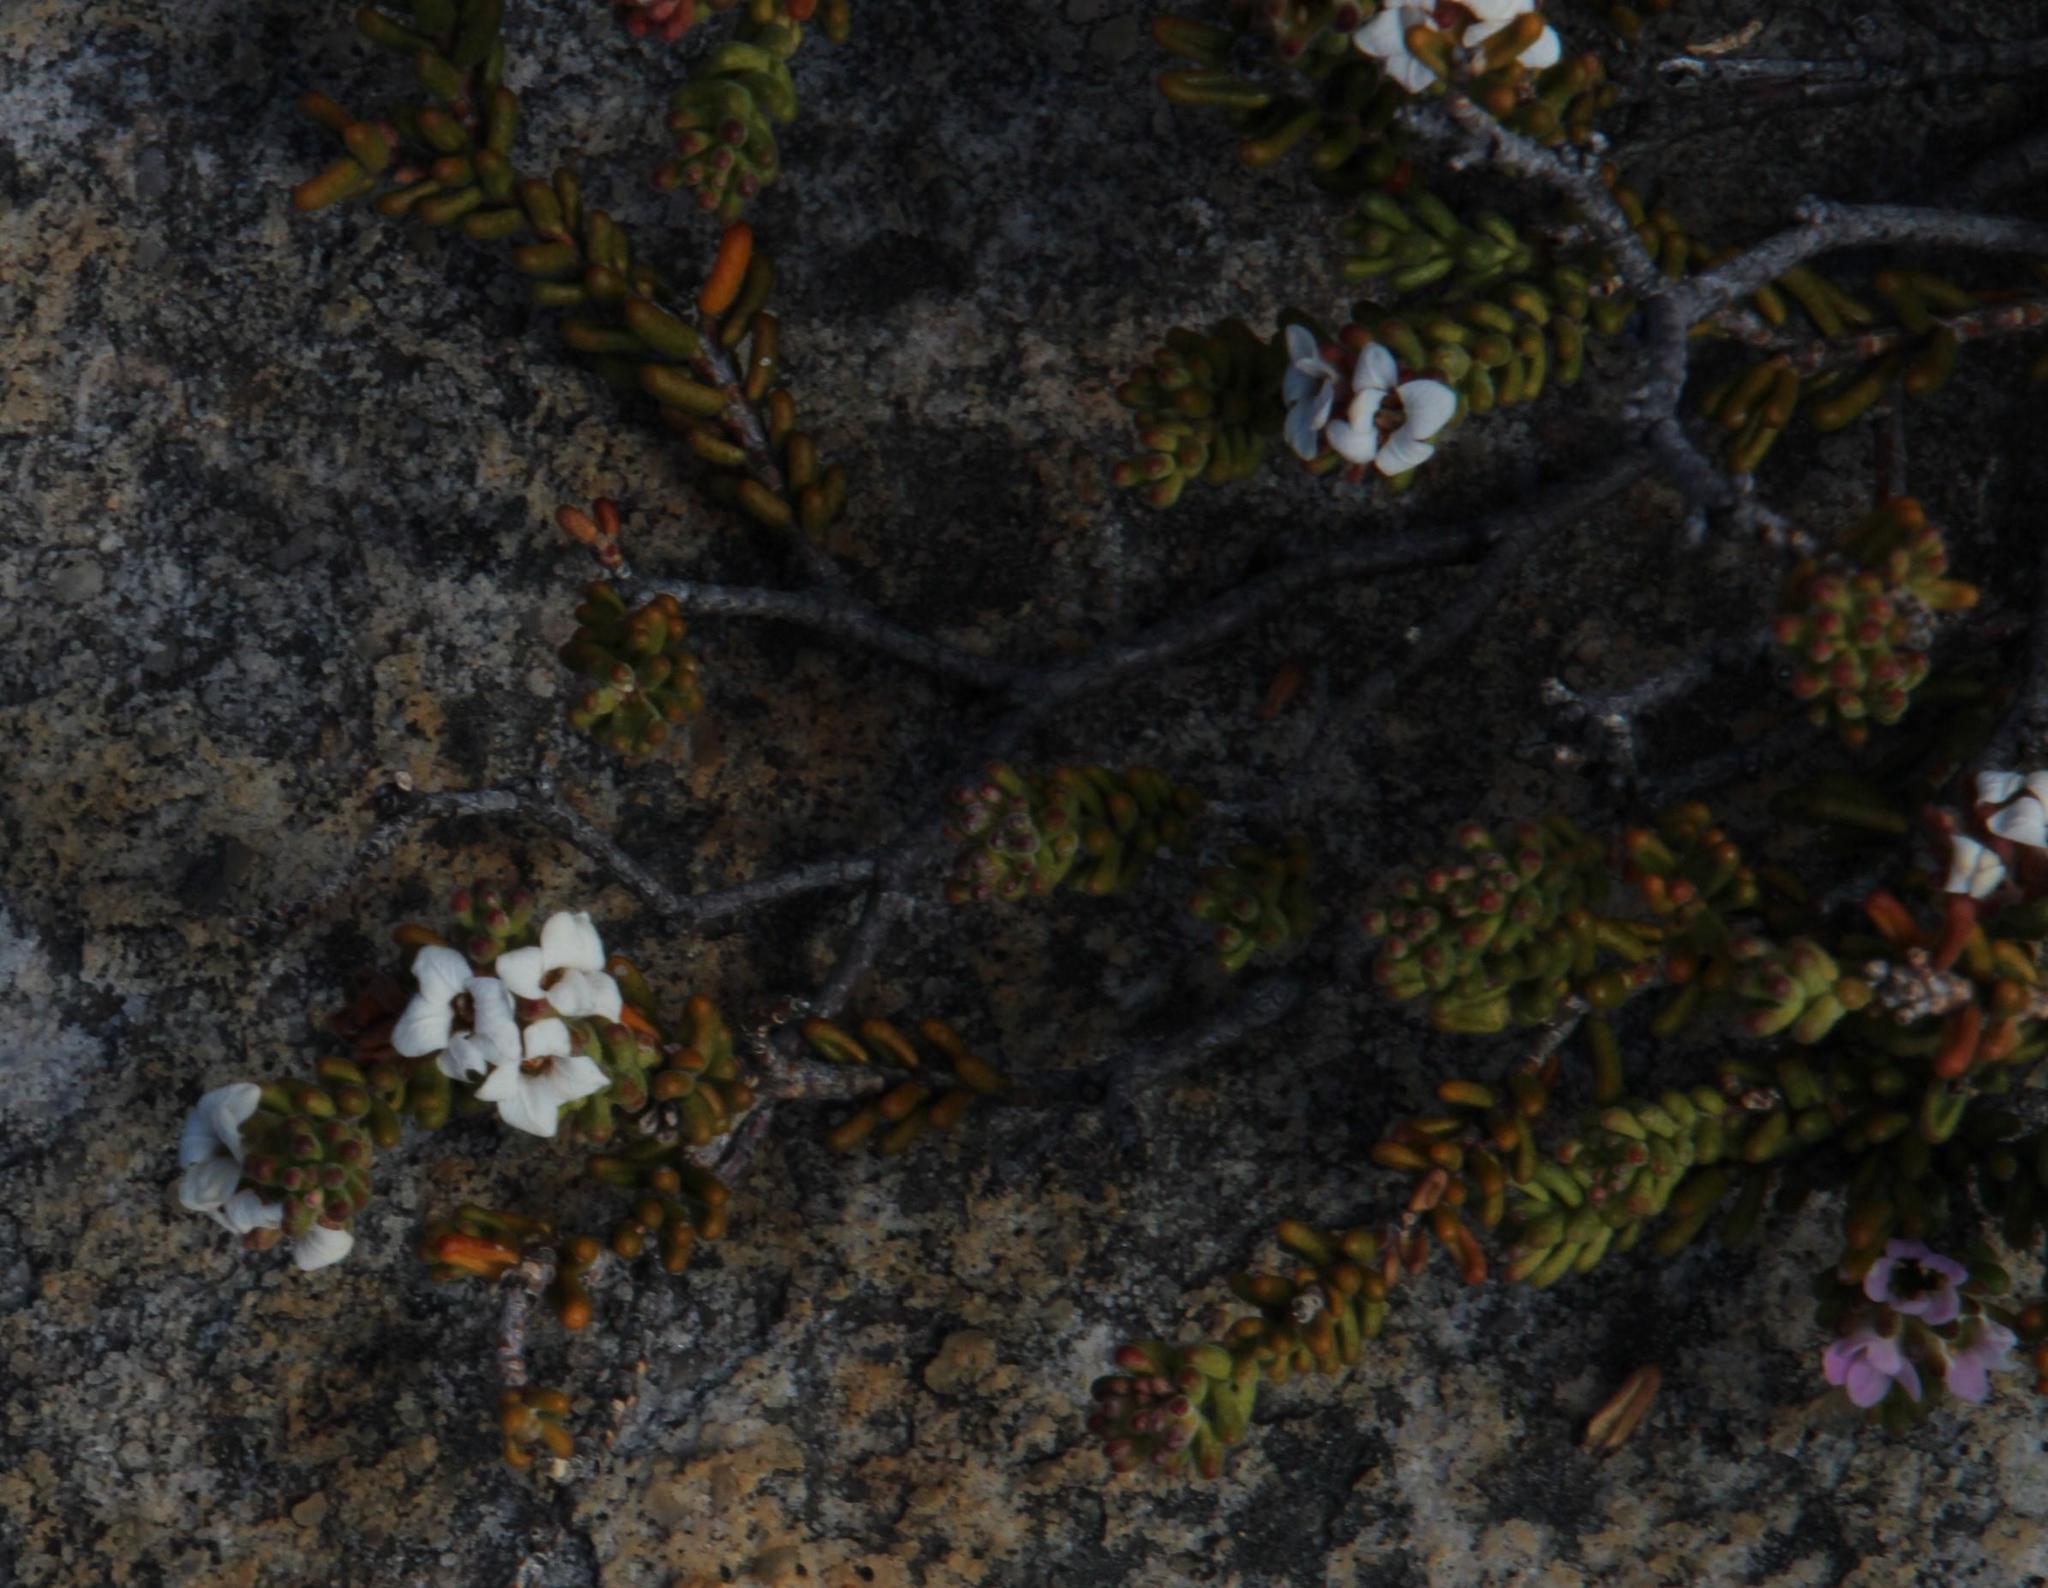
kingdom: Plantae
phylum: Tracheophyta
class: Magnoliopsida
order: Sapindales
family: Rutaceae
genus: Acmadenia
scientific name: Acmadenia teretifolia
